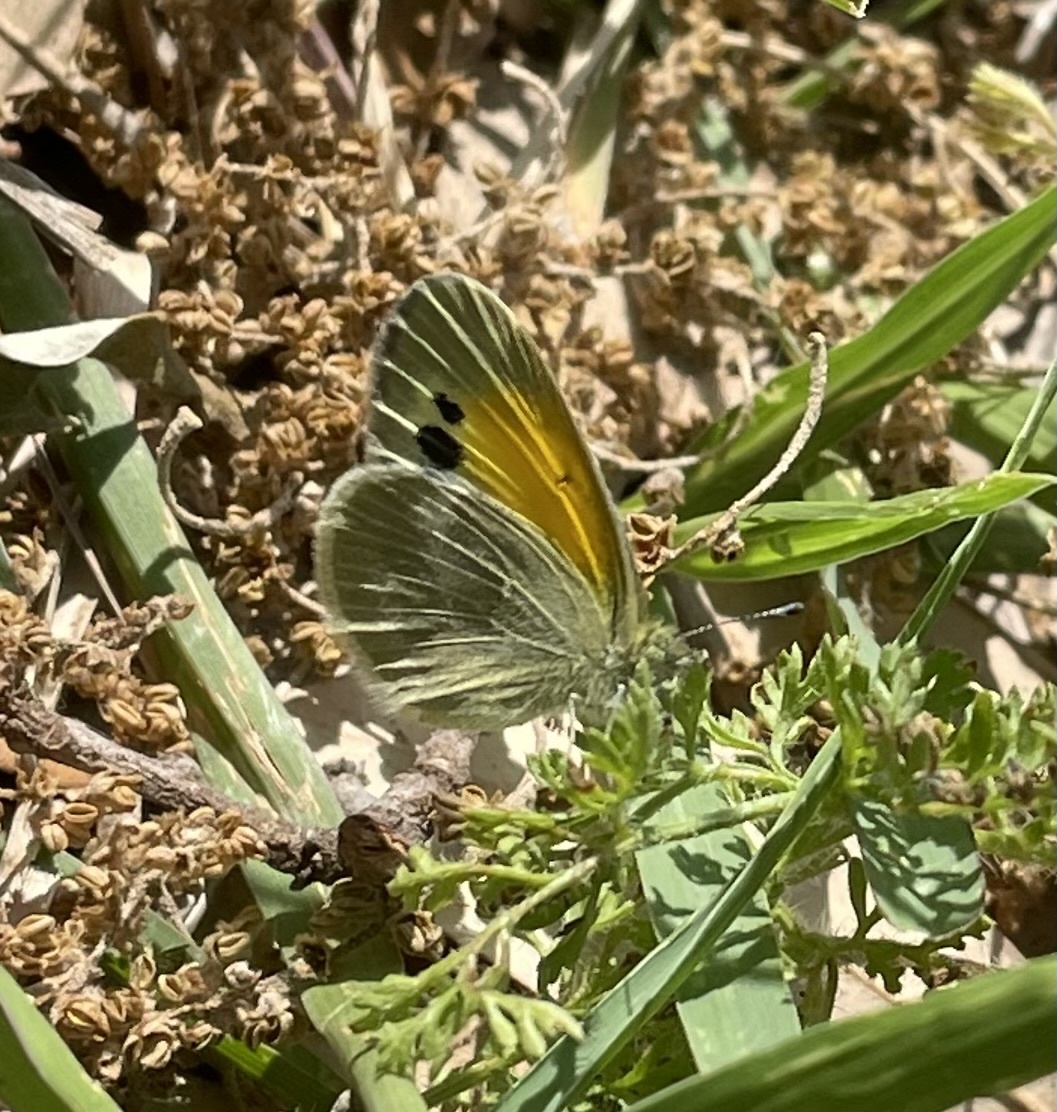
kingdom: Animalia
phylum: Arthropoda
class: Insecta
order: Lepidoptera
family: Pieridae
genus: Nathalis
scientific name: Nathalis iole
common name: Dainty sulphur
